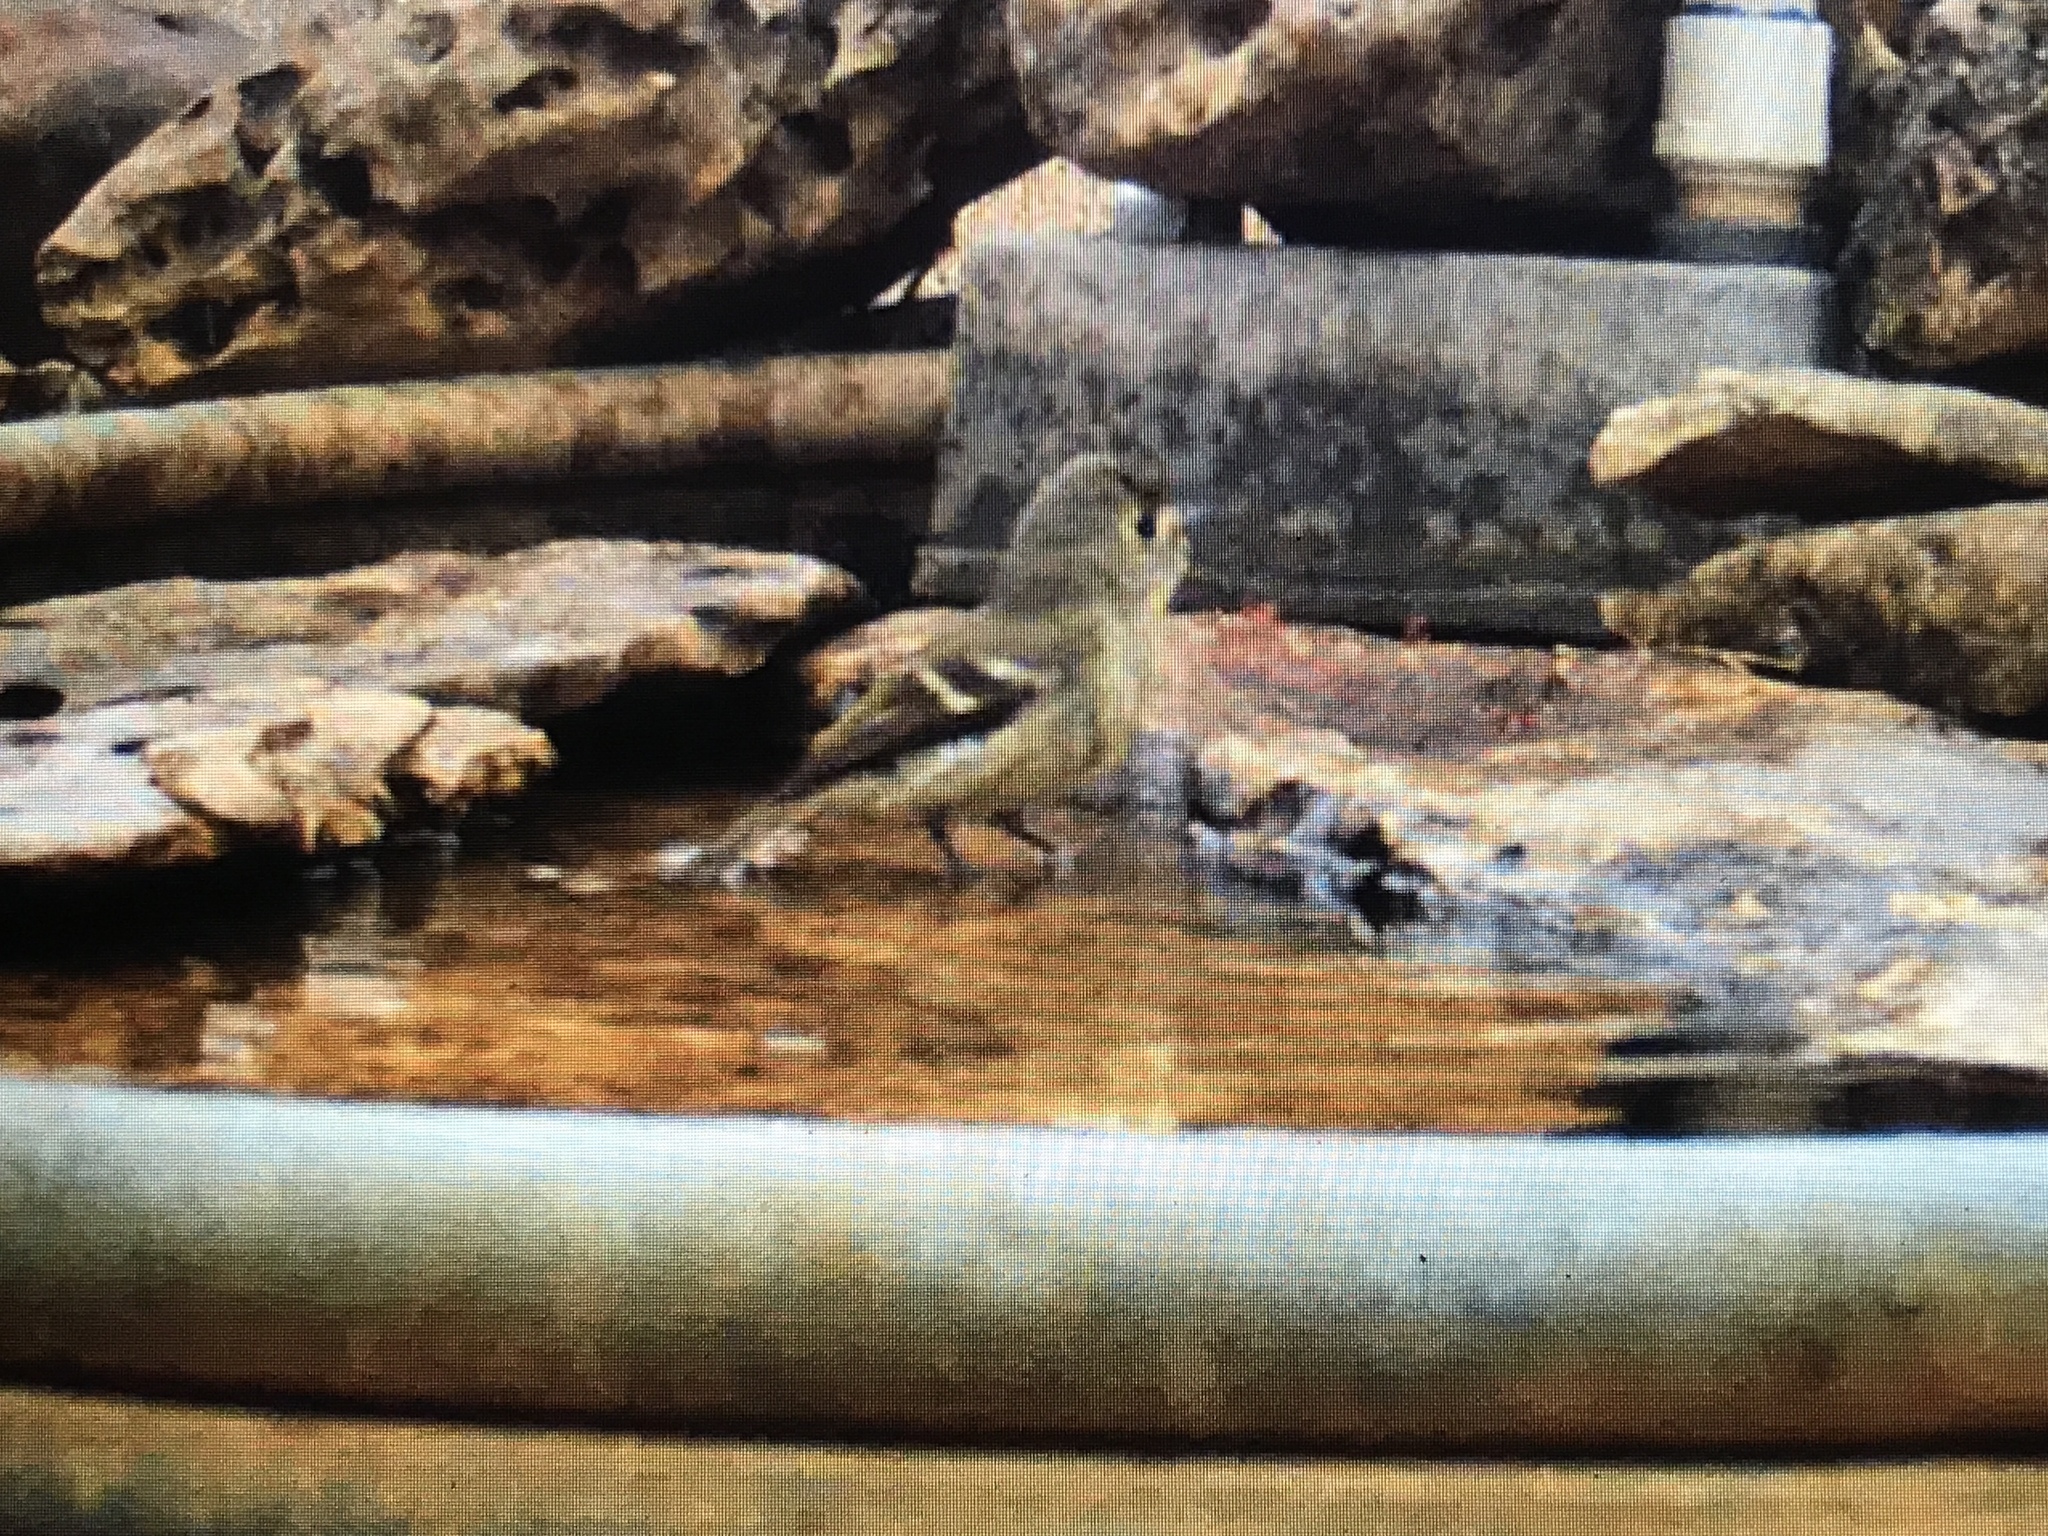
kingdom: Animalia
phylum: Chordata
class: Aves
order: Passeriformes
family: Vireonidae
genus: Vireo
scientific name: Vireo huttoni
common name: Hutton's vireo
